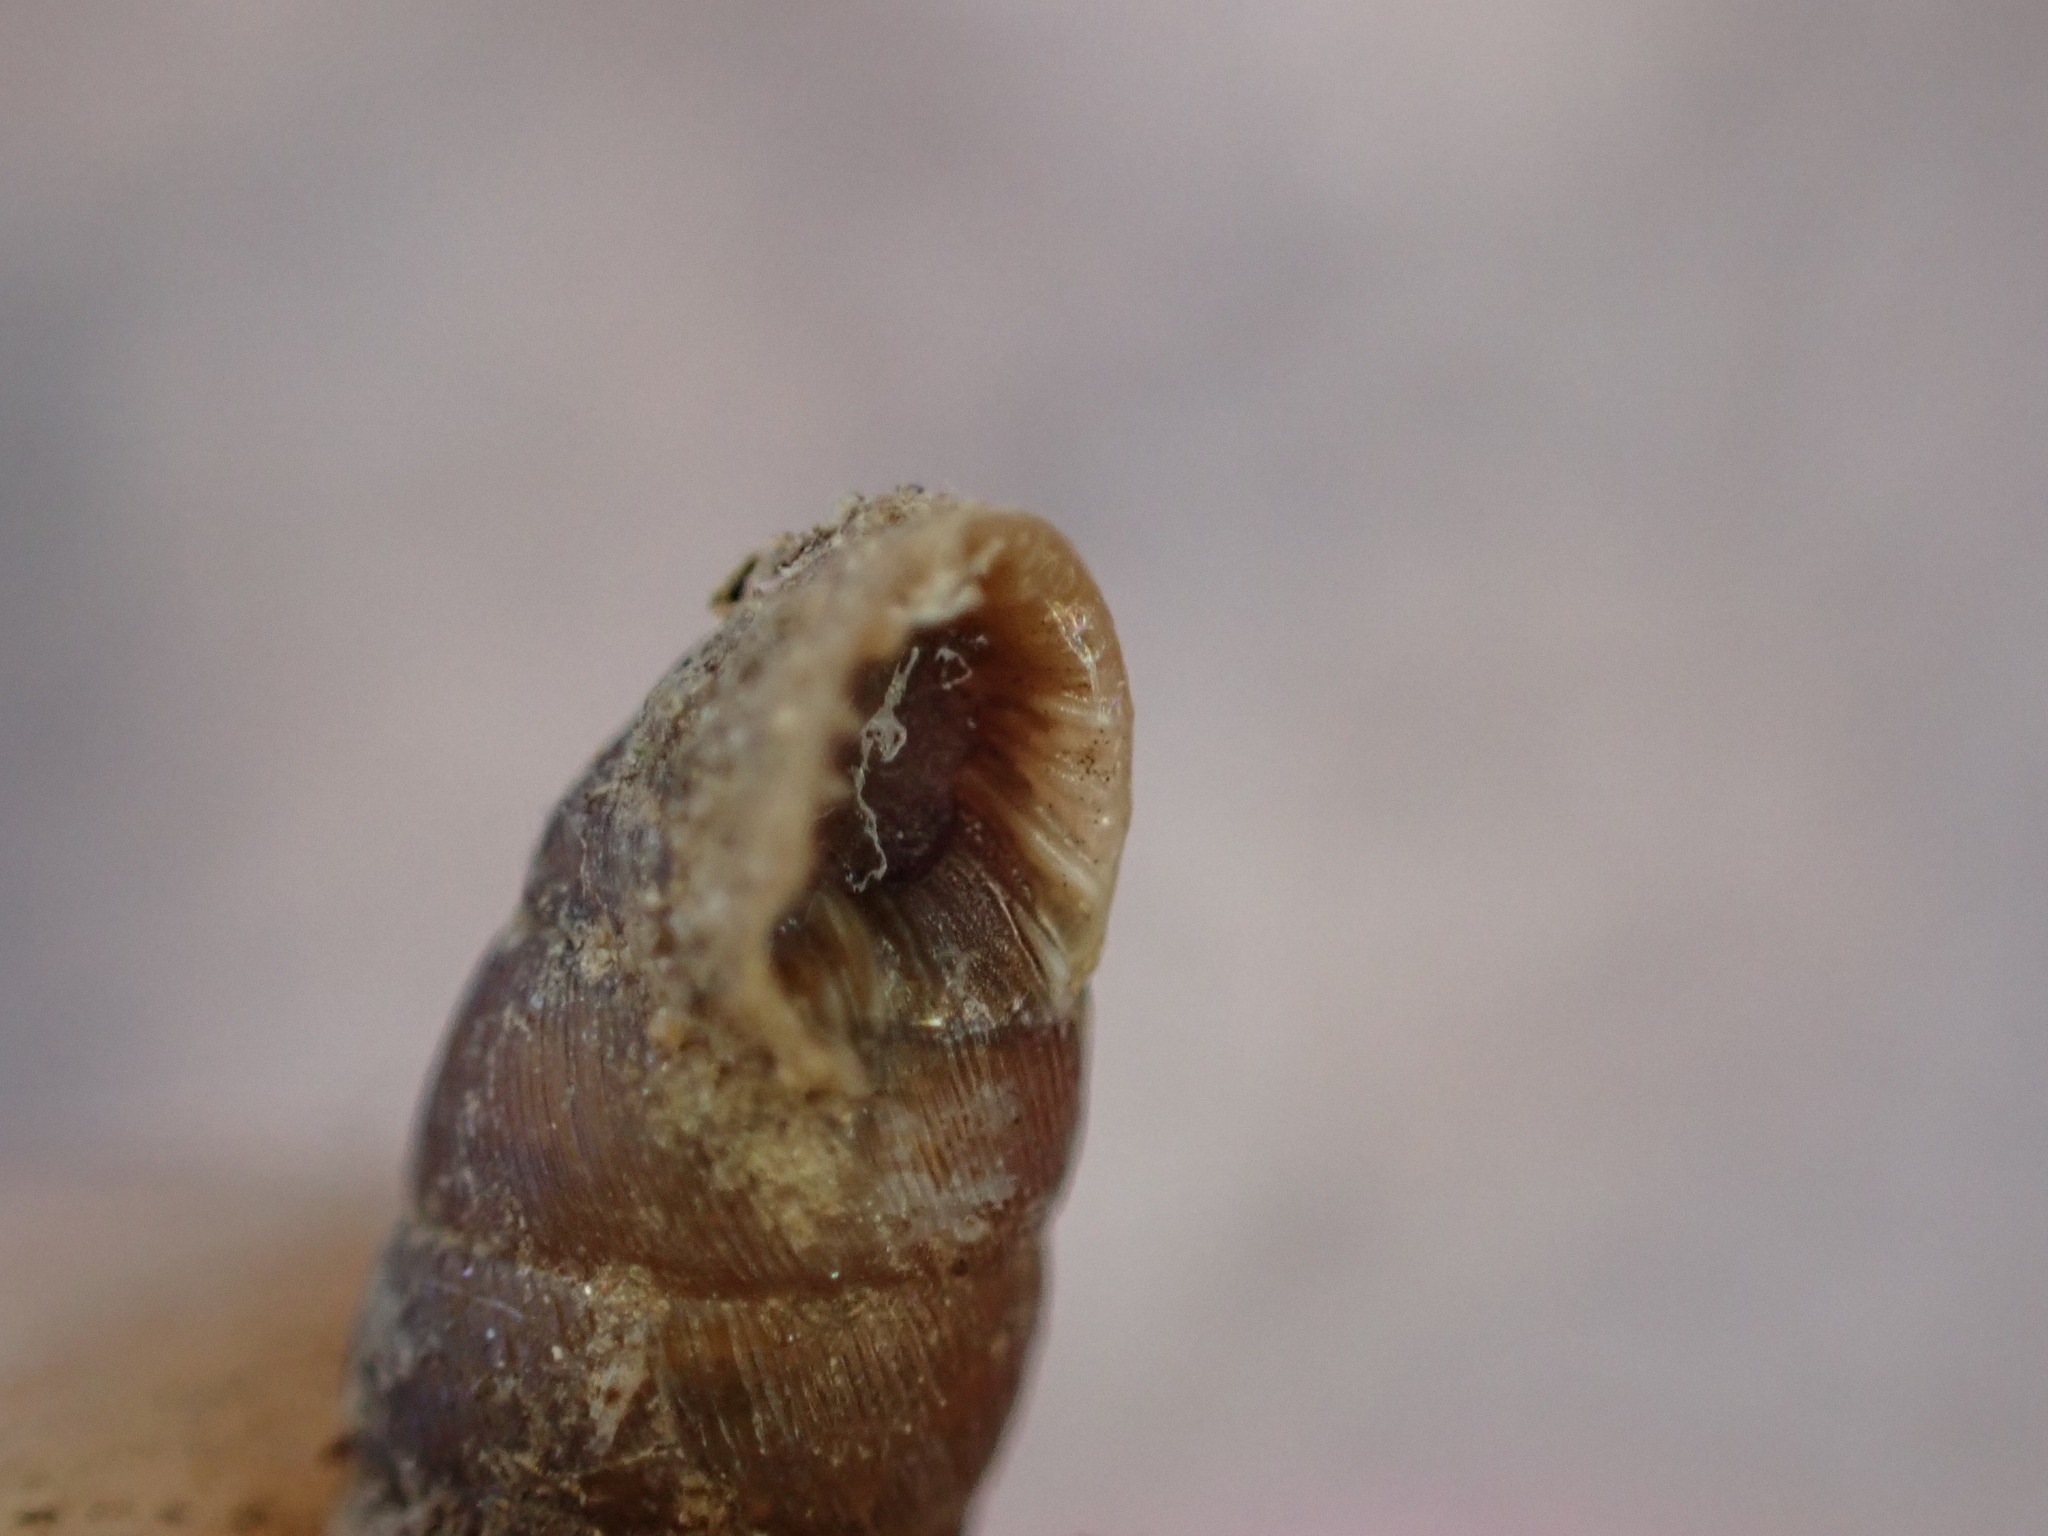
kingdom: Animalia
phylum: Mollusca
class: Gastropoda
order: Stylommatophora
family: Chondrinidae
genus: Abida
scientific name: Abida polyodon
